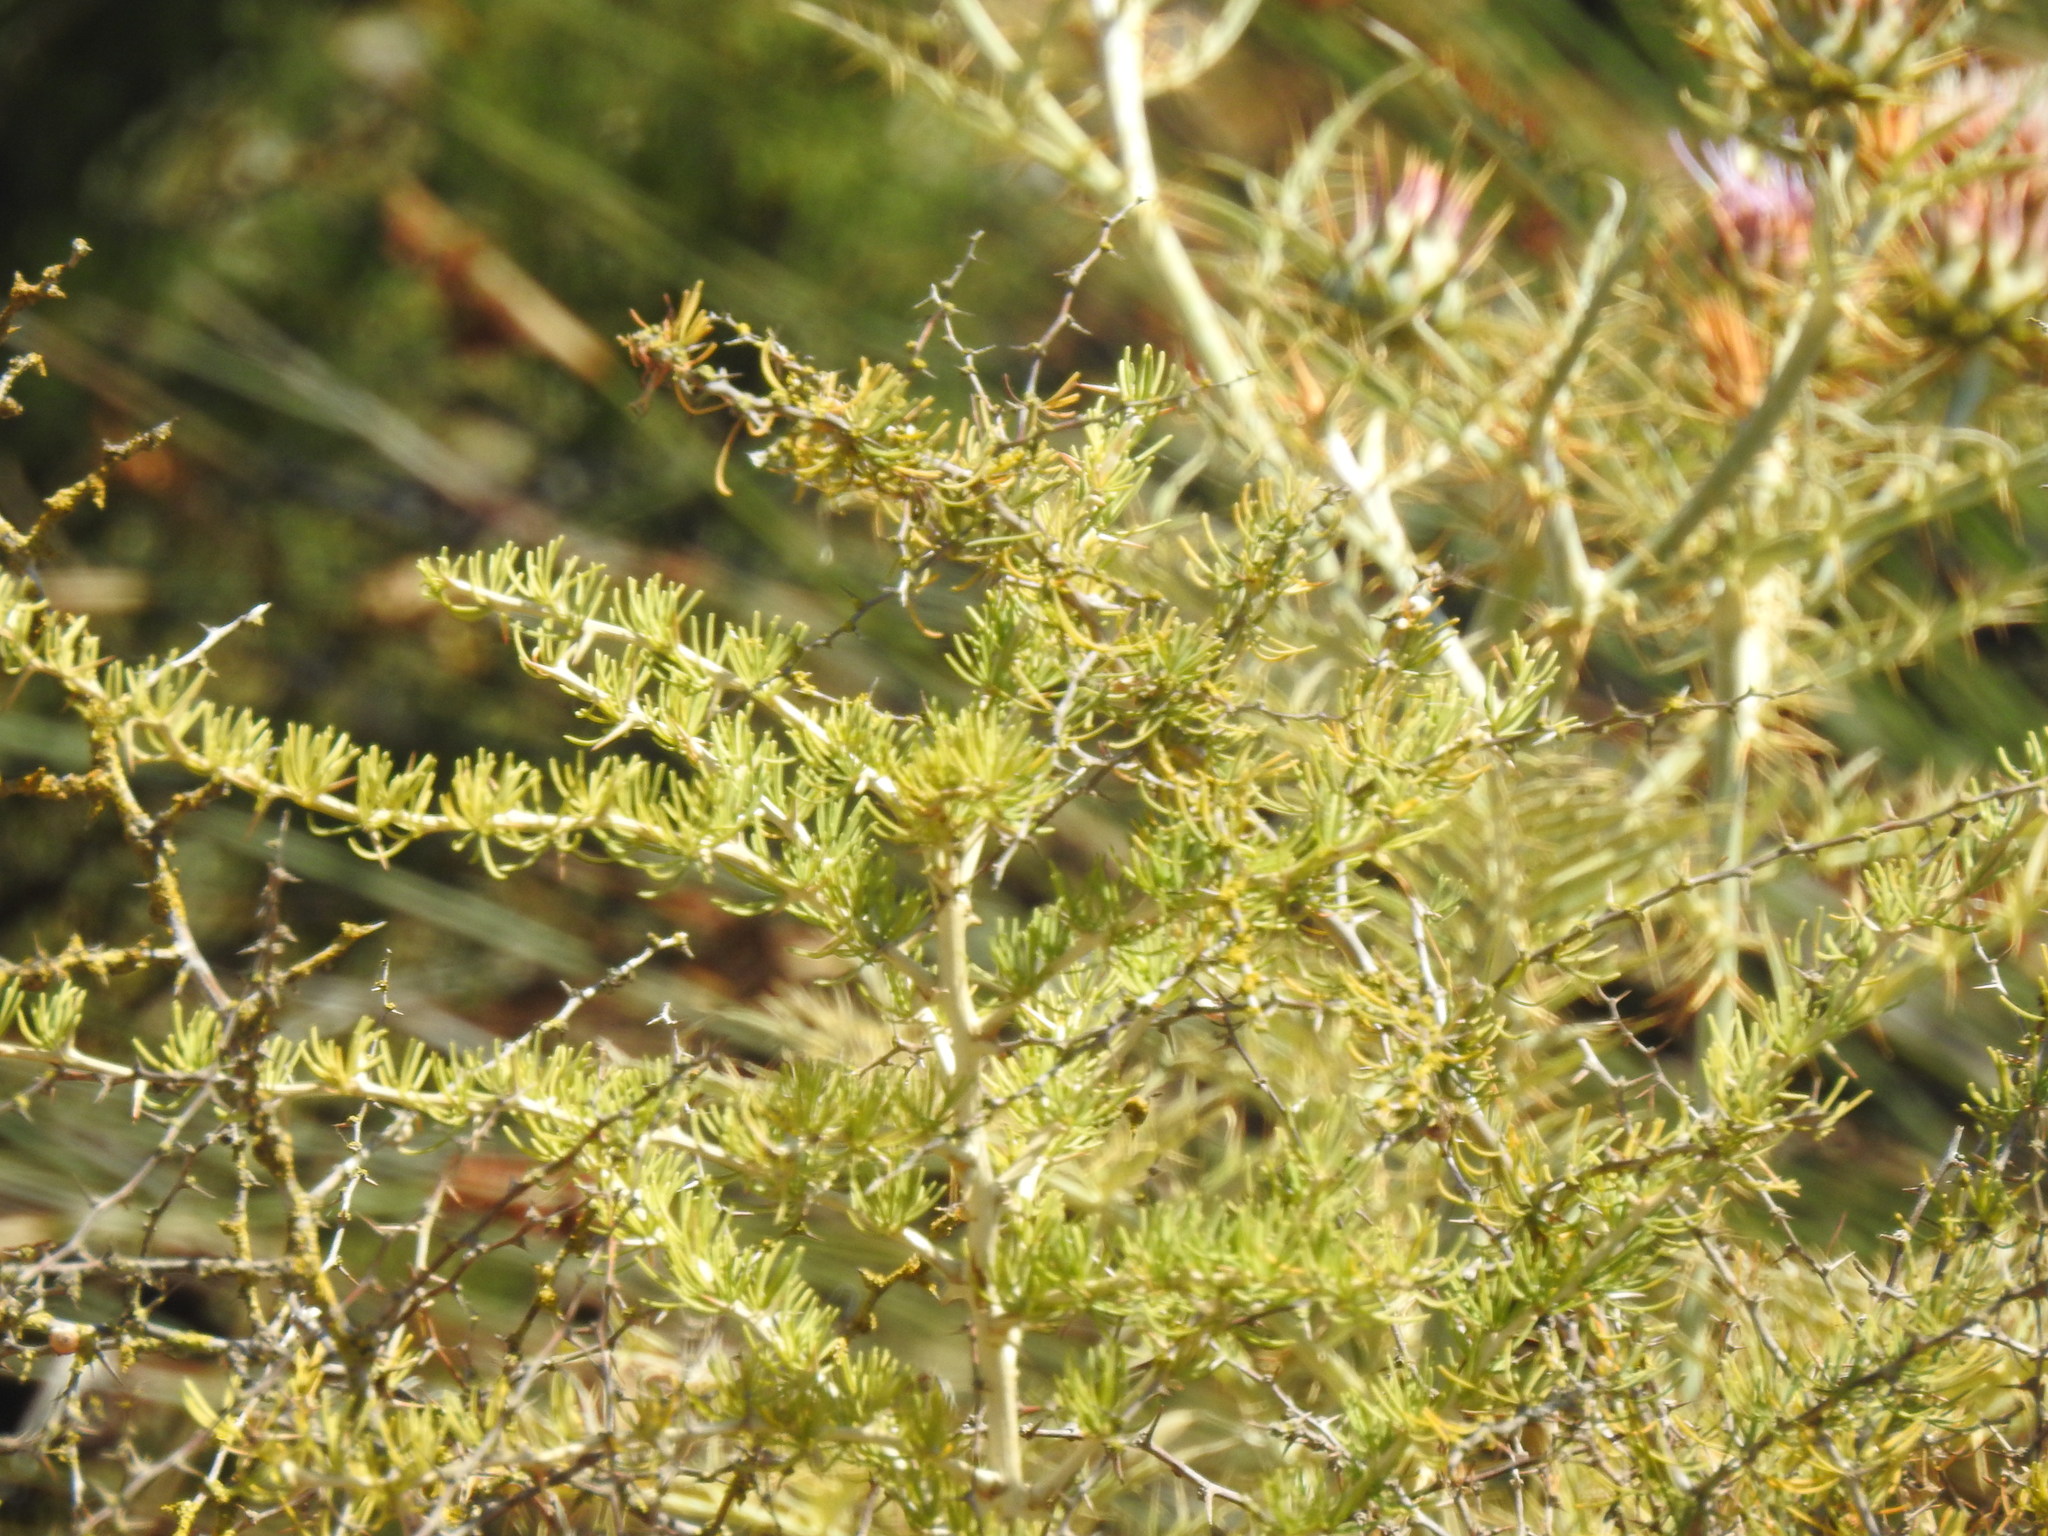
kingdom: Plantae
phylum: Tracheophyta
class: Liliopsida
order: Asparagales
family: Asparagaceae
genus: Asparagus
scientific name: Asparagus albus
